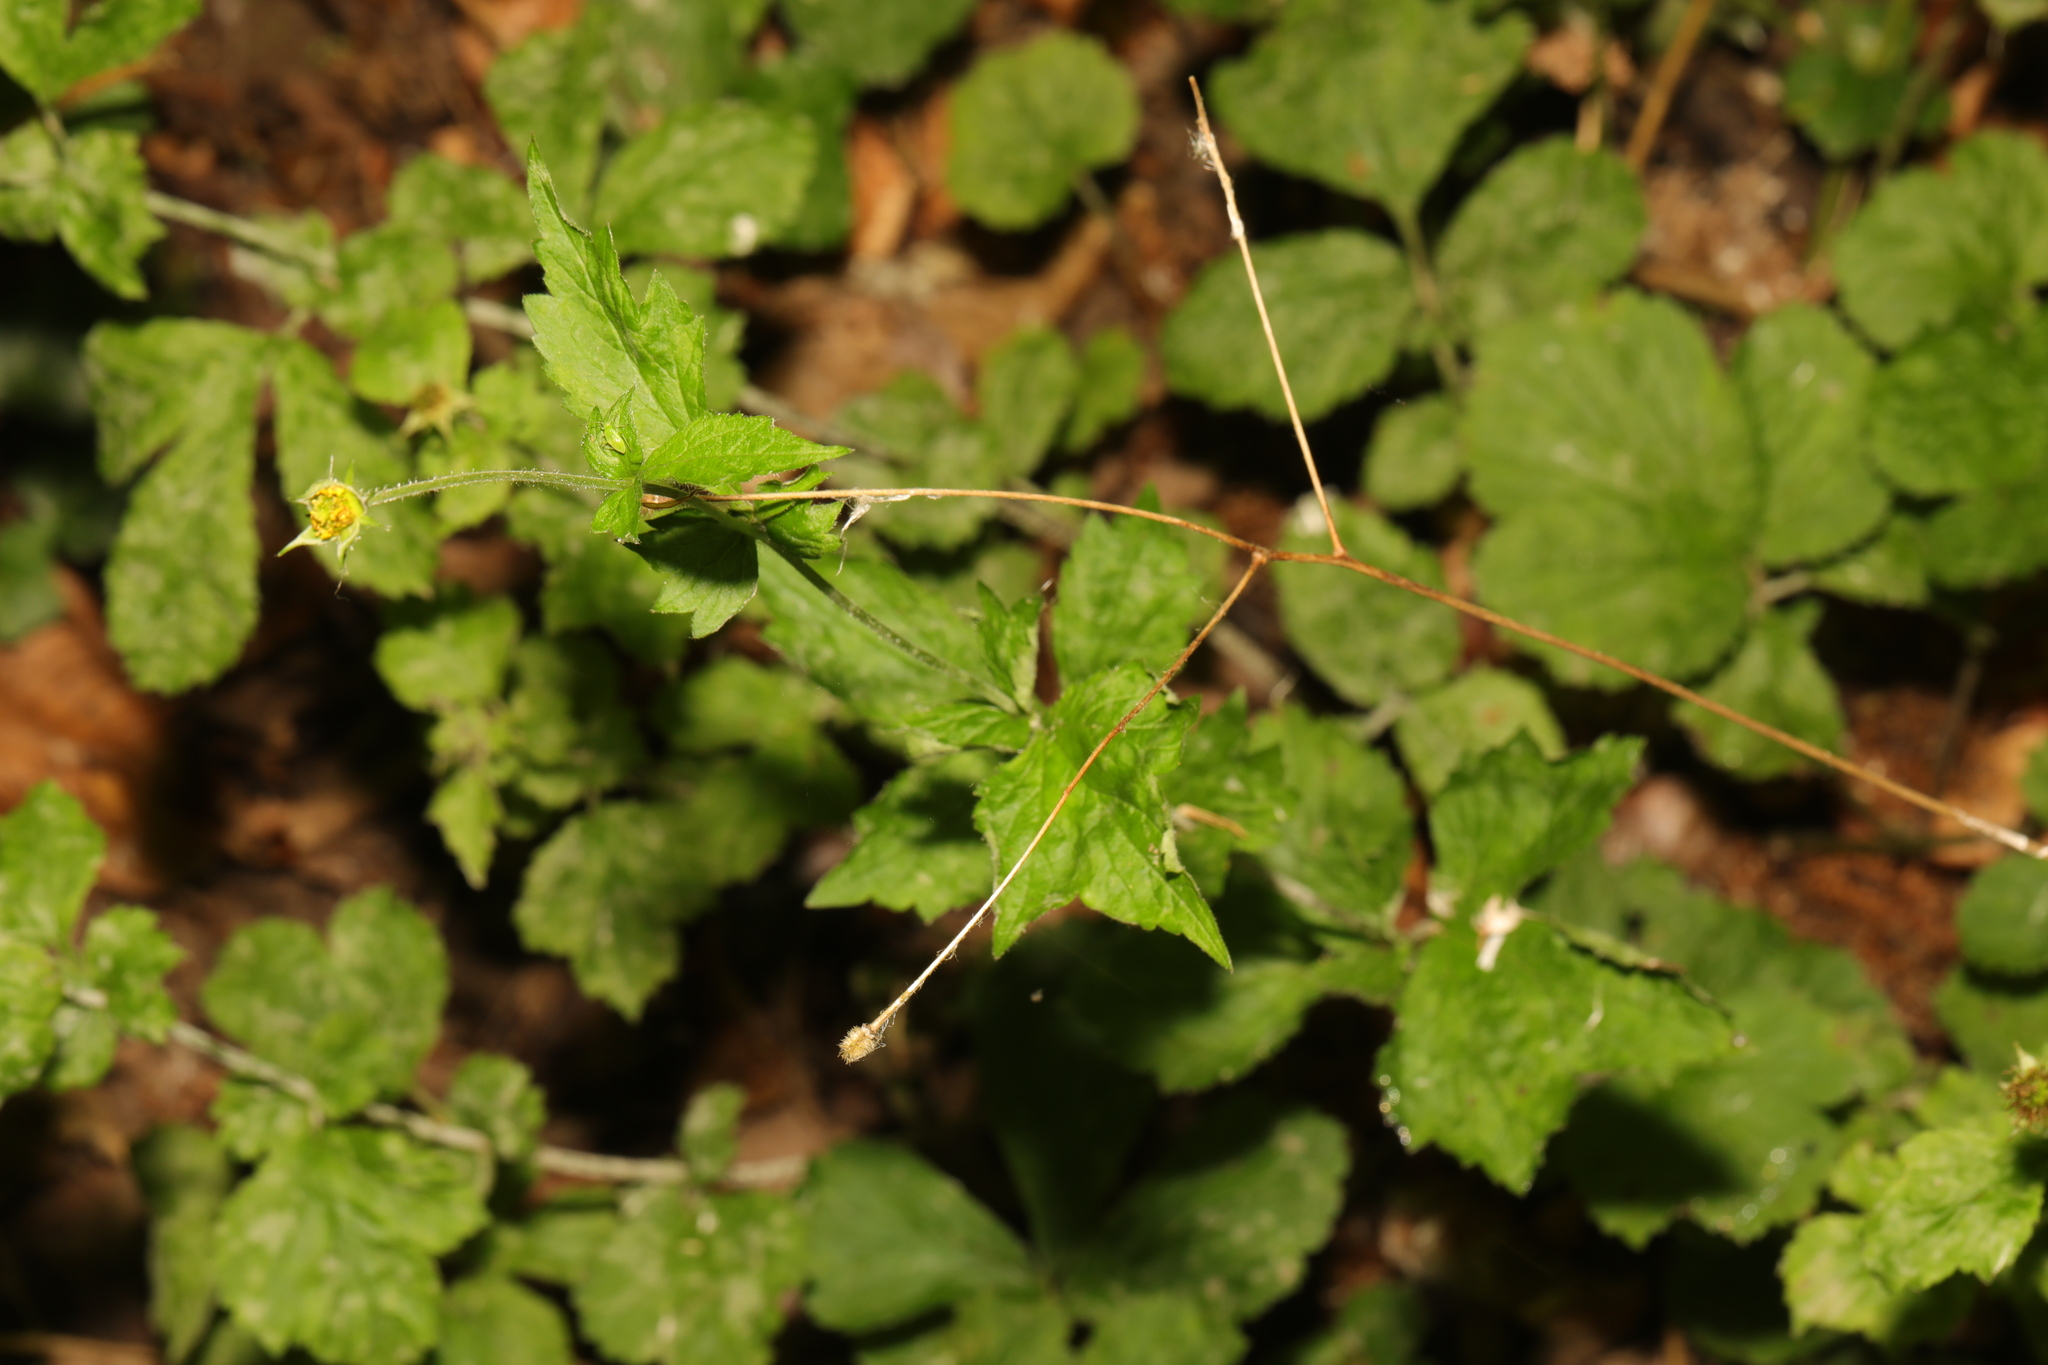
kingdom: Plantae
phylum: Tracheophyta
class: Magnoliopsida
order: Rosales
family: Rosaceae
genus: Geum
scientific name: Geum urbanum
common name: Wood avens
